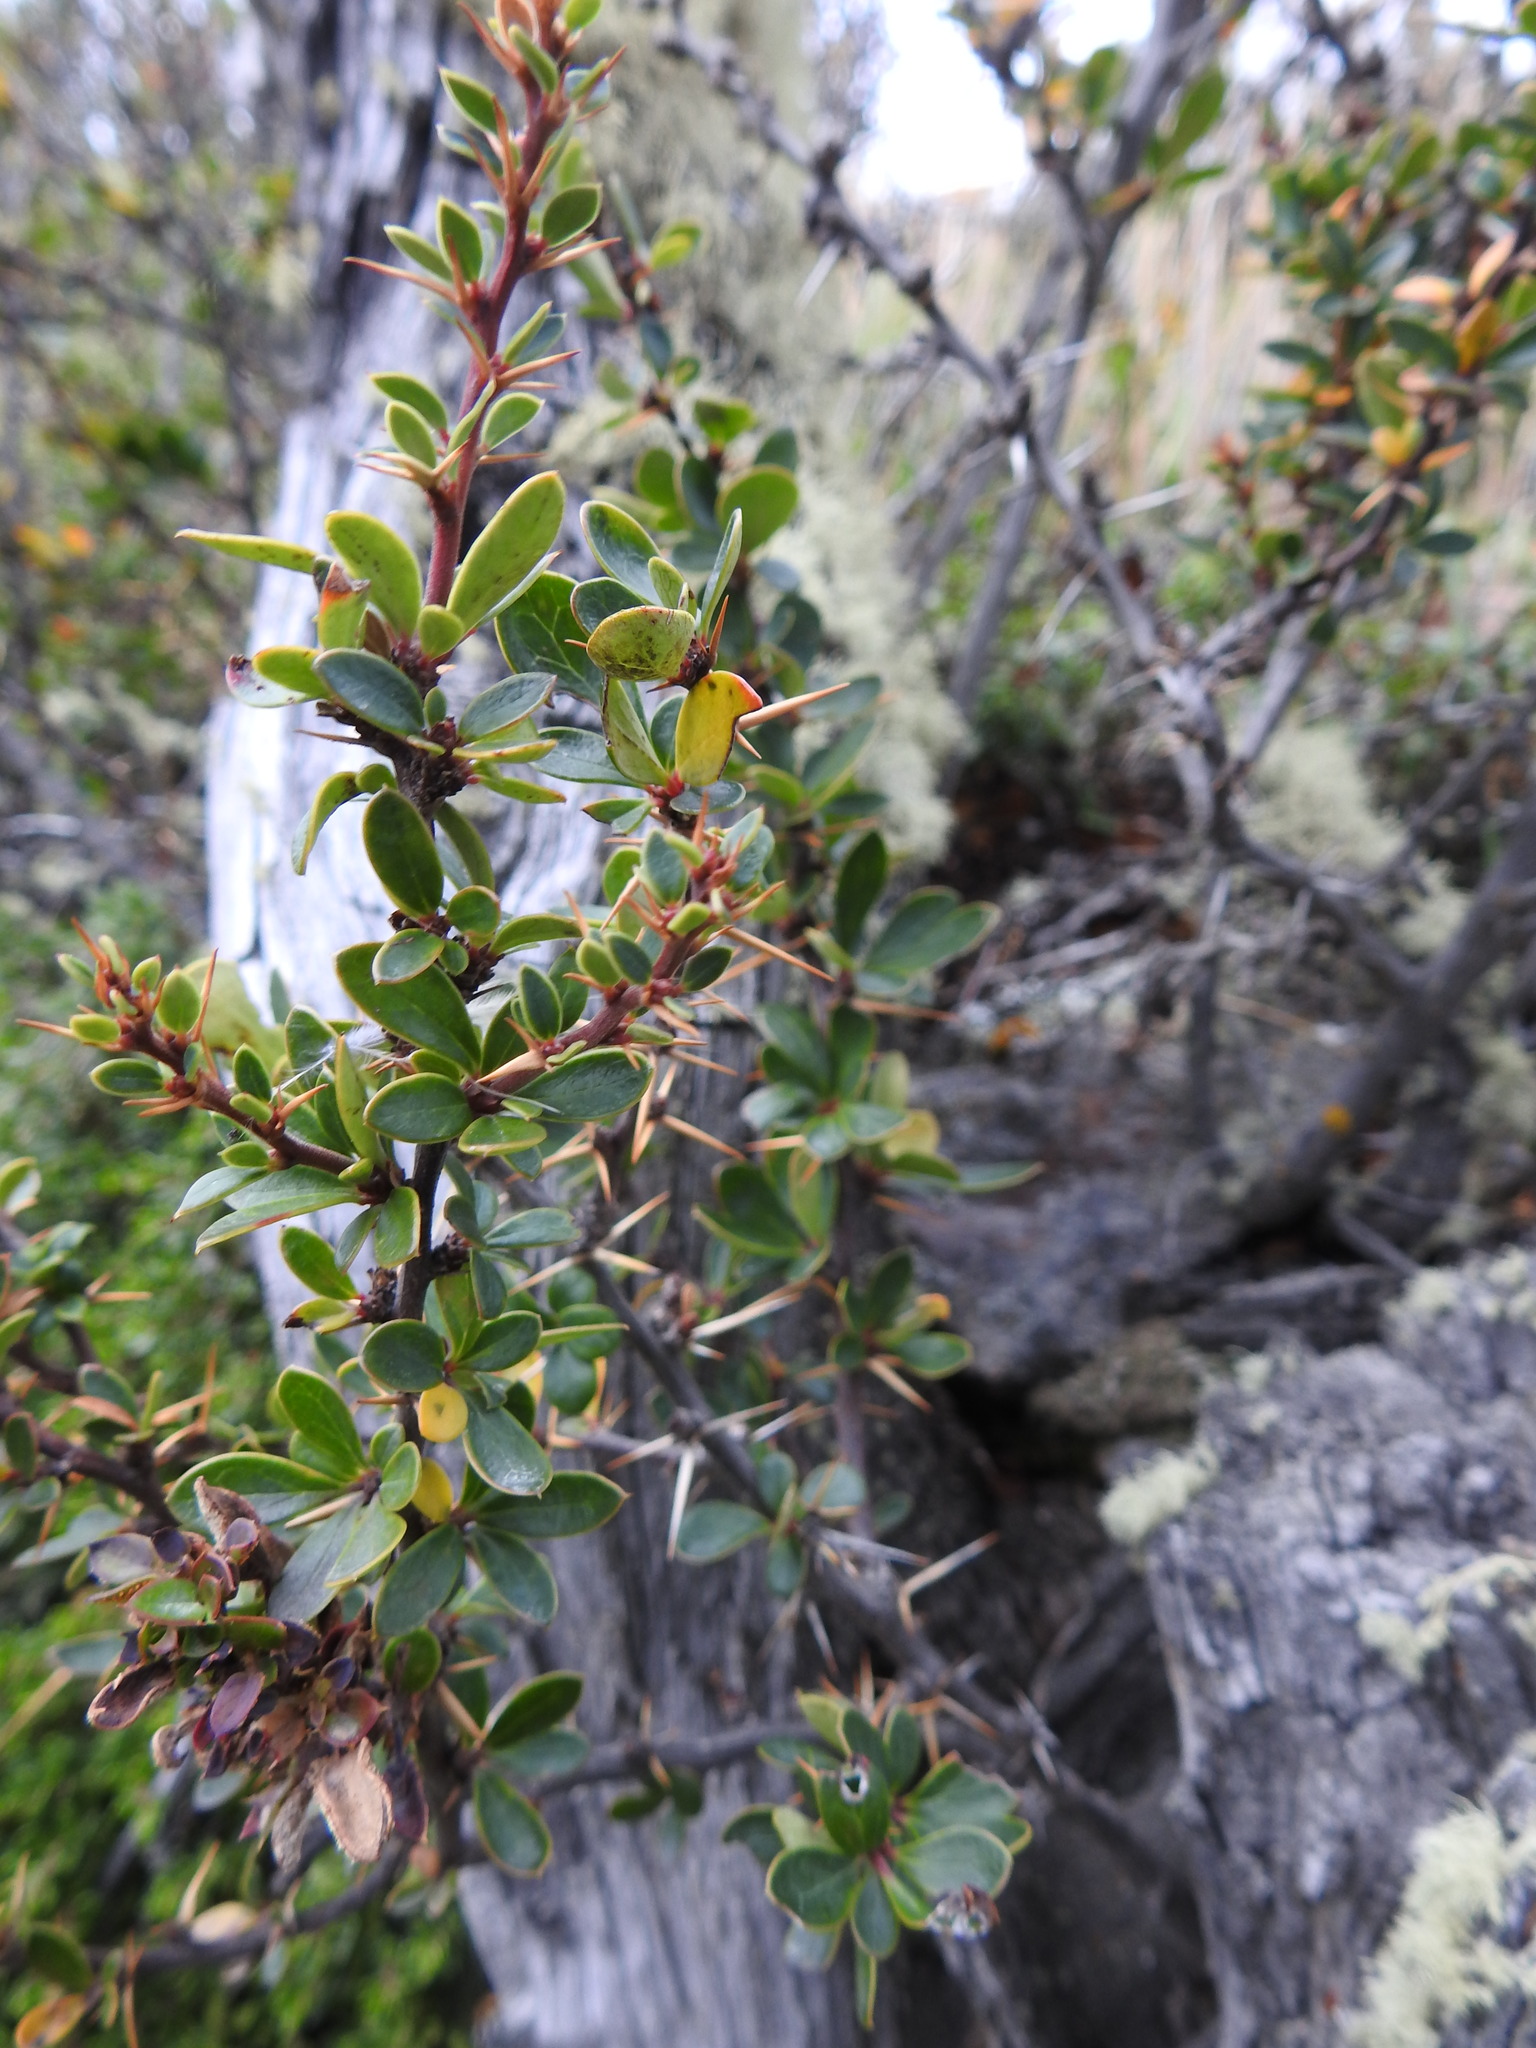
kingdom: Plantae
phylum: Tracheophyta
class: Magnoliopsida
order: Ranunculales
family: Berberidaceae
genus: Berberis
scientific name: Berberis microphylla
